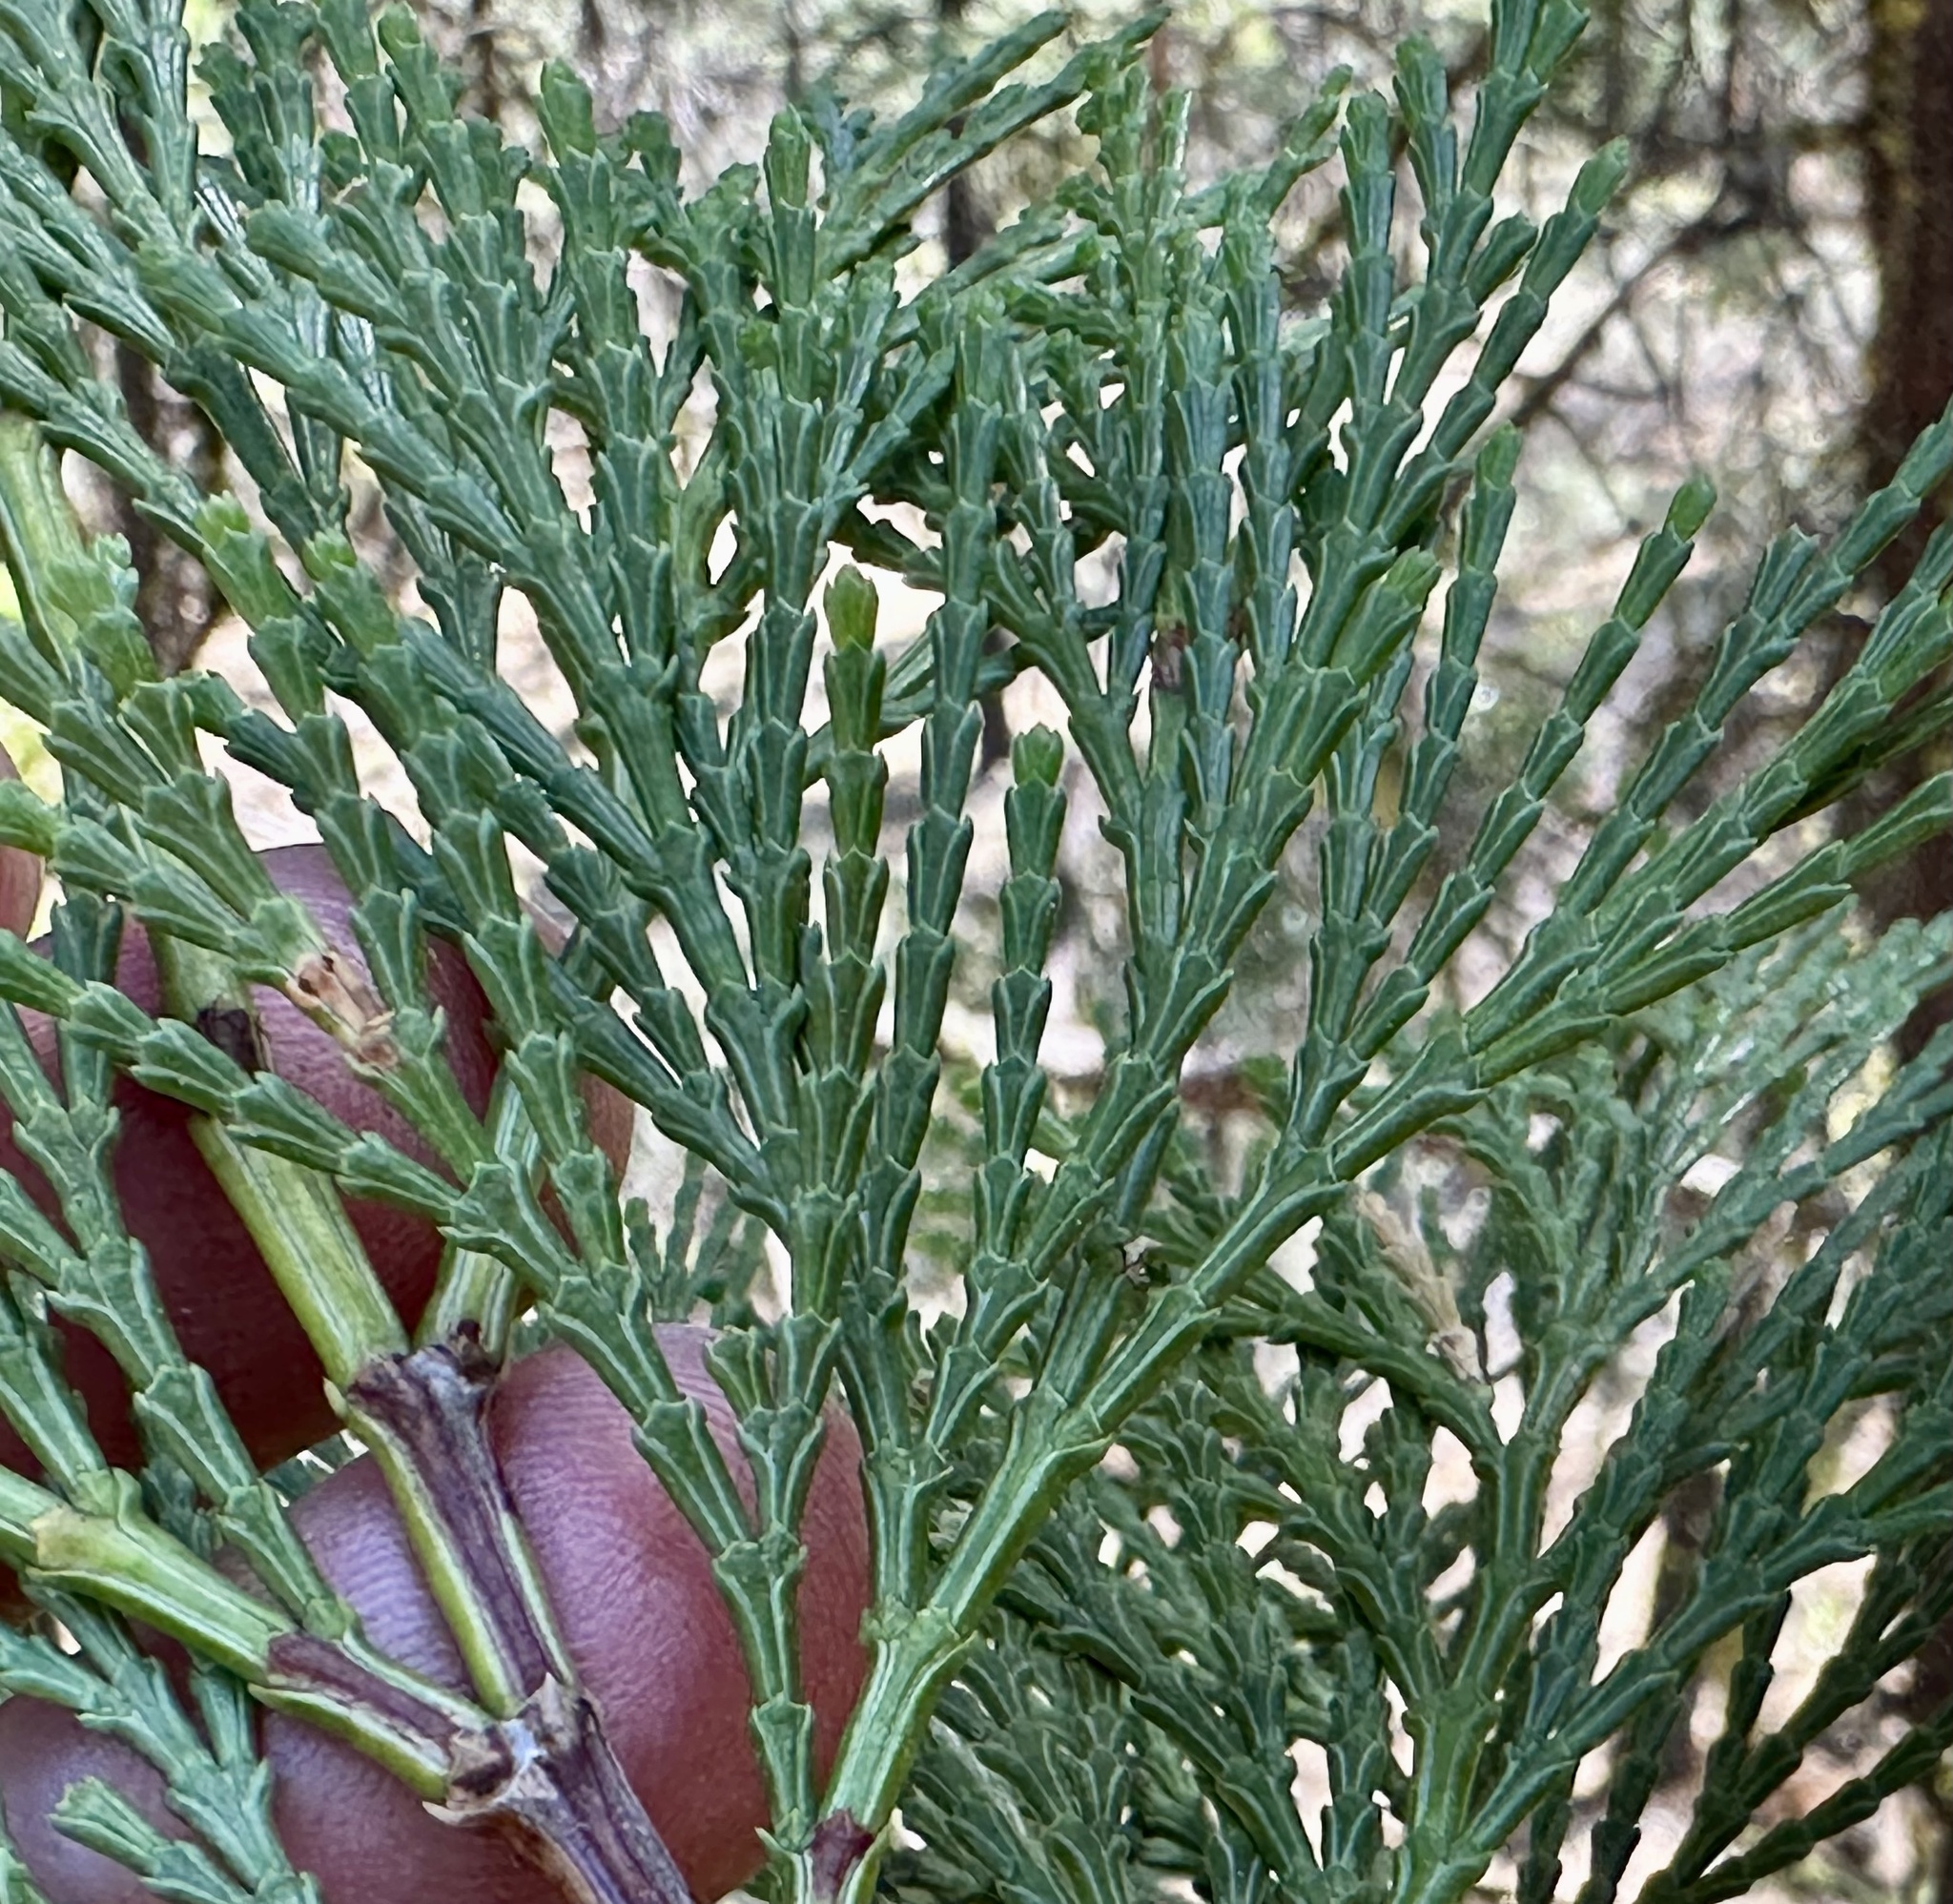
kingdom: Plantae
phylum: Tracheophyta
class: Pinopsida
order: Pinales
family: Cupressaceae
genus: Calocedrus
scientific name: Calocedrus decurrens
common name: Californian incense-cedar
